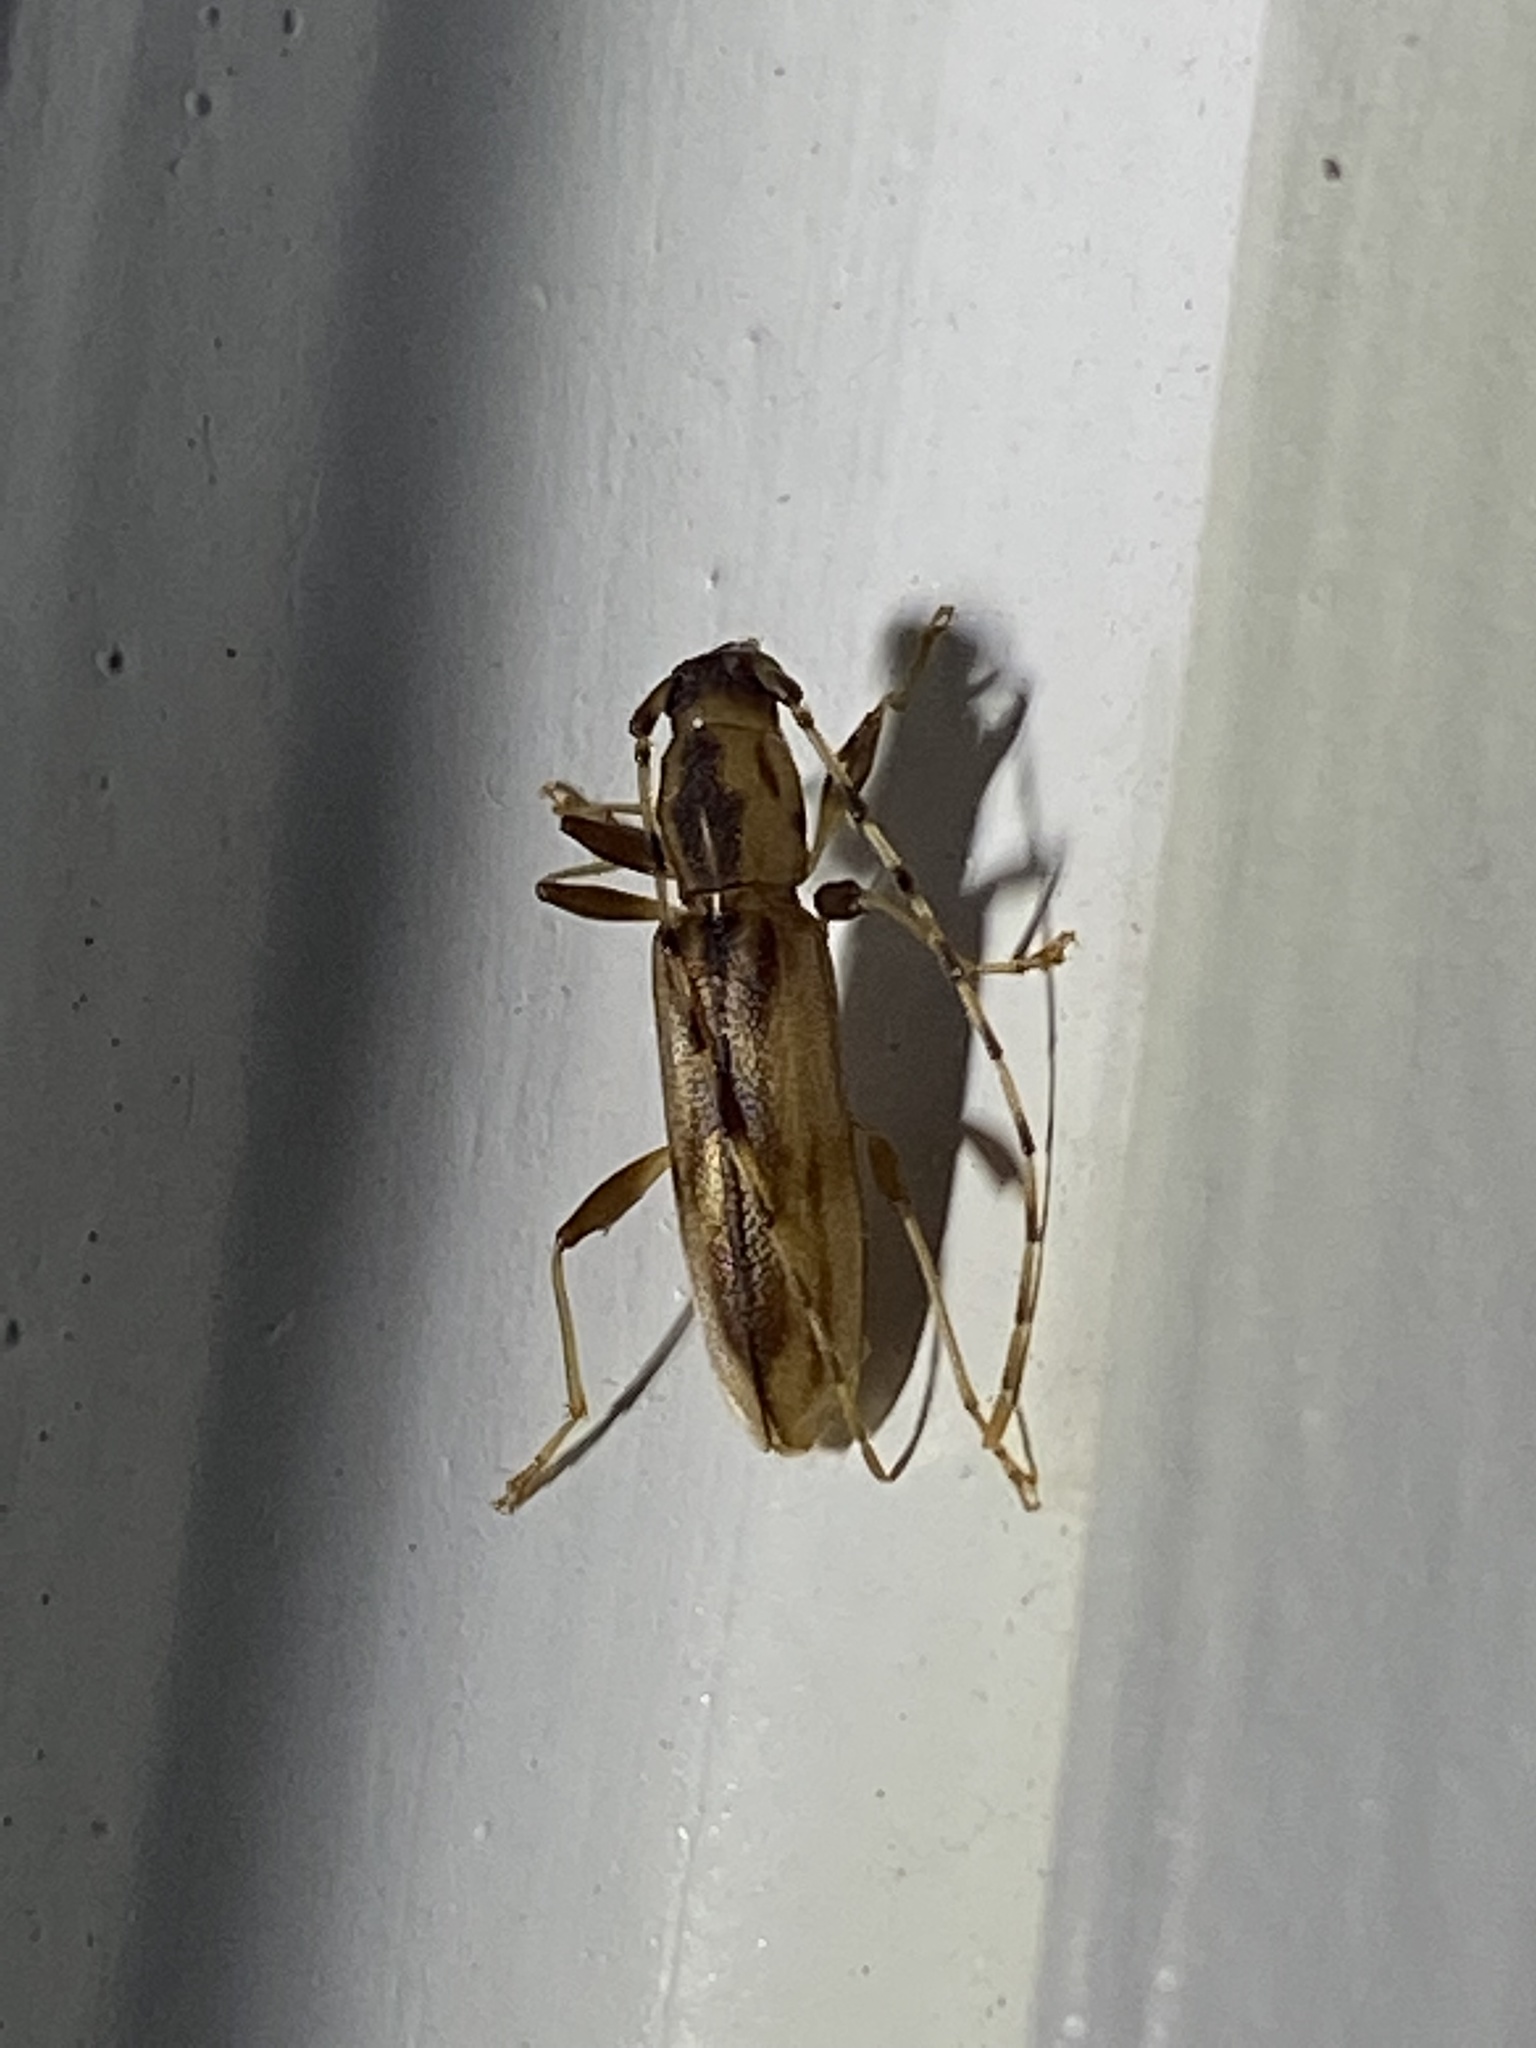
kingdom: Animalia
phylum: Arthropoda
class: Insecta
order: Coleoptera
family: Cerambycidae
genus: Curius
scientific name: Curius dentatus
